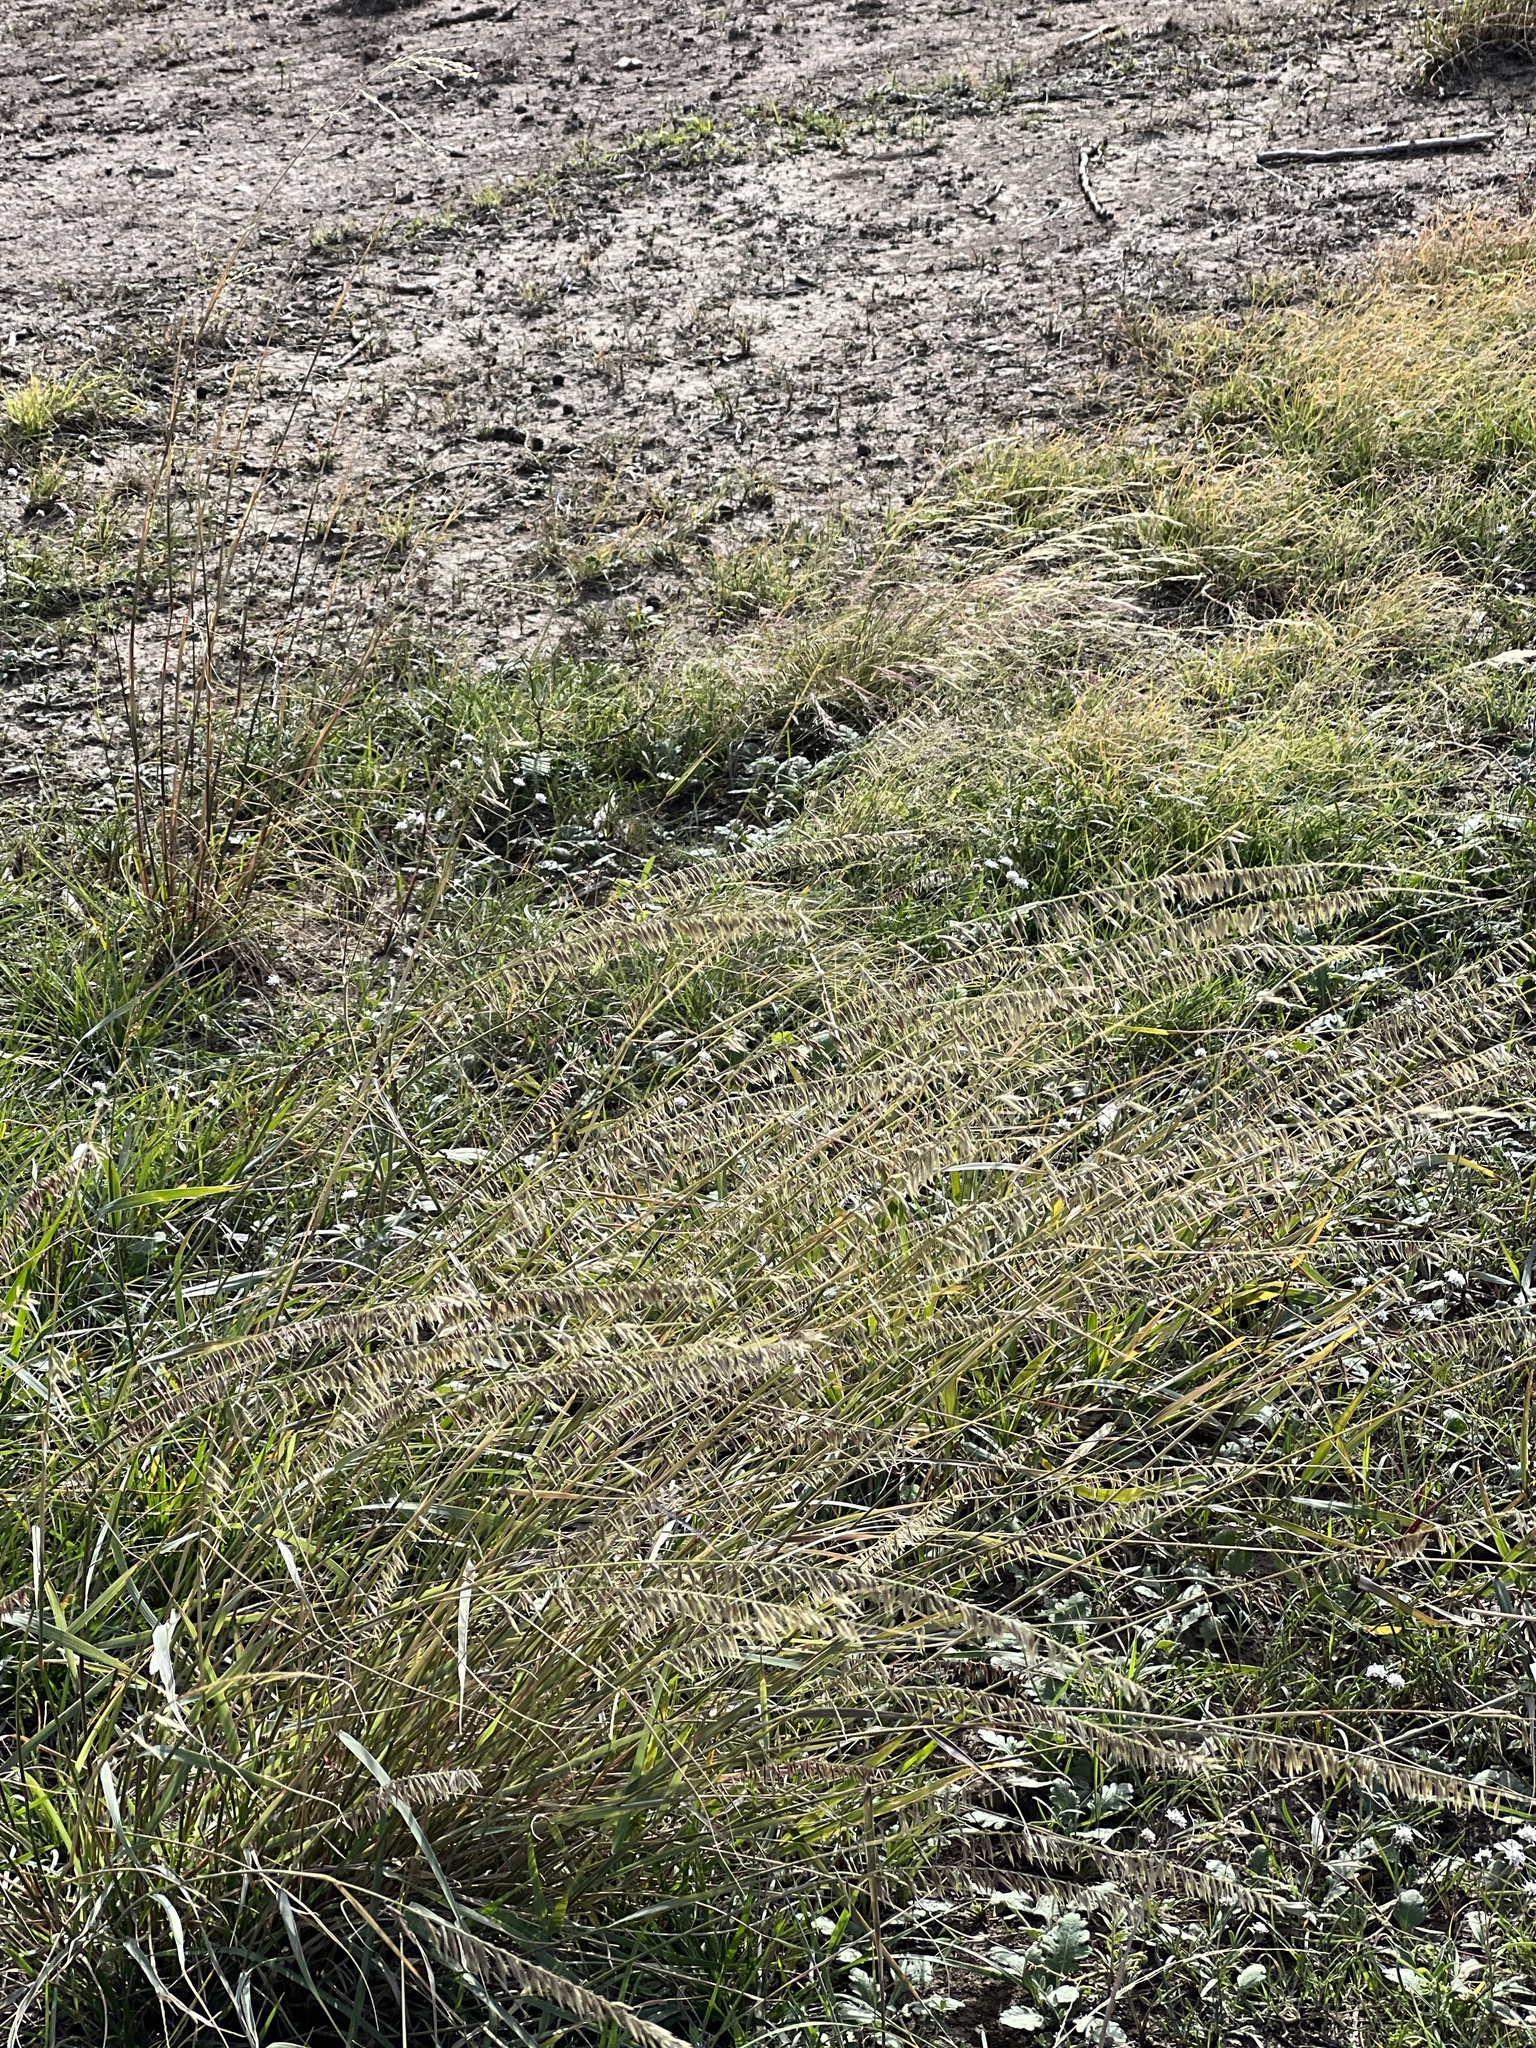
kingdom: Plantae
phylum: Tracheophyta
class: Liliopsida
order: Poales
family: Poaceae
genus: Bouteloua
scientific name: Bouteloua curtipendula
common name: Side-oats grama
